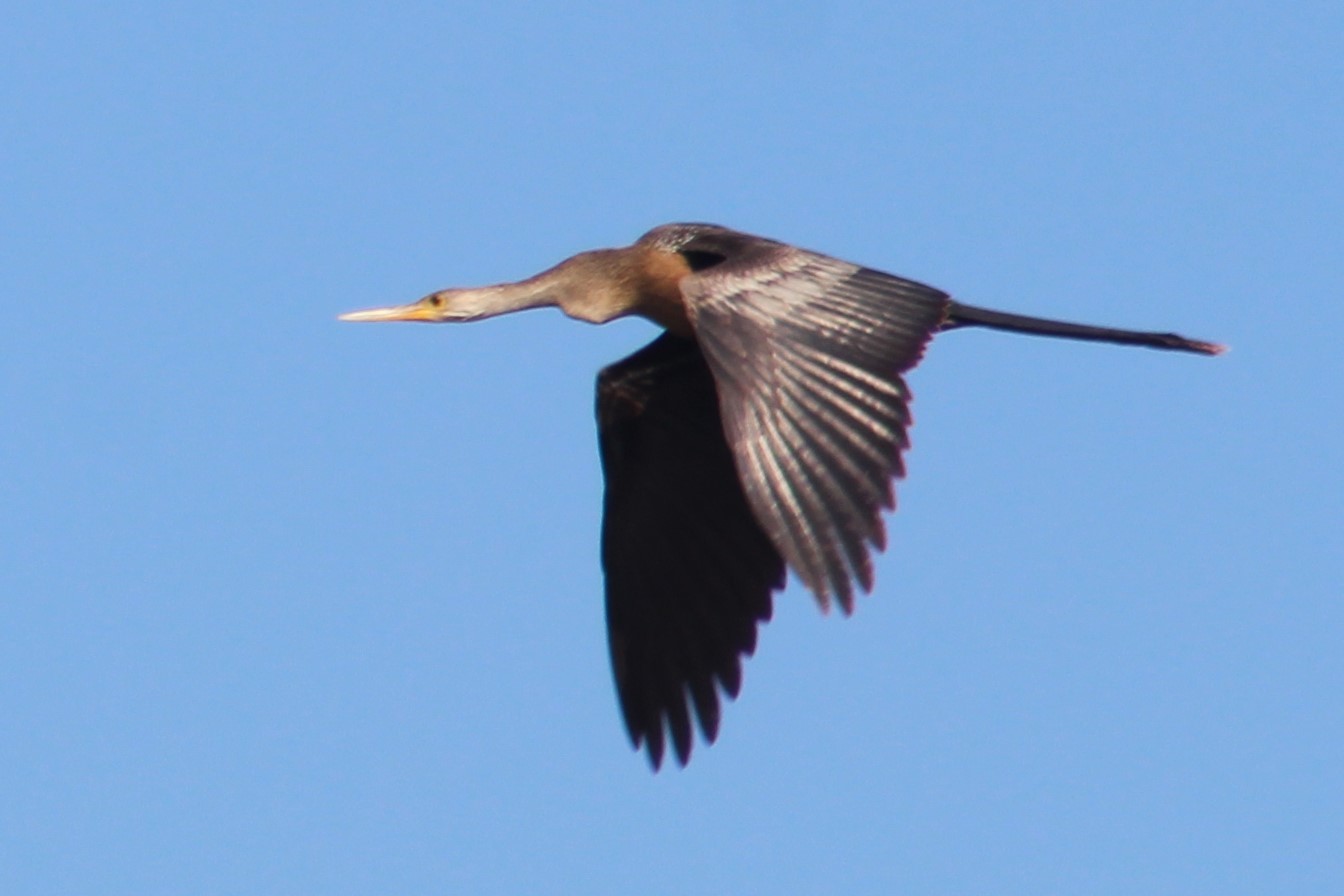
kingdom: Animalia
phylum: Chordata
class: Aves
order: Suliformes
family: Anhingidae
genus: Anhinga
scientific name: Anhinga anhinga
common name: Anhinga
